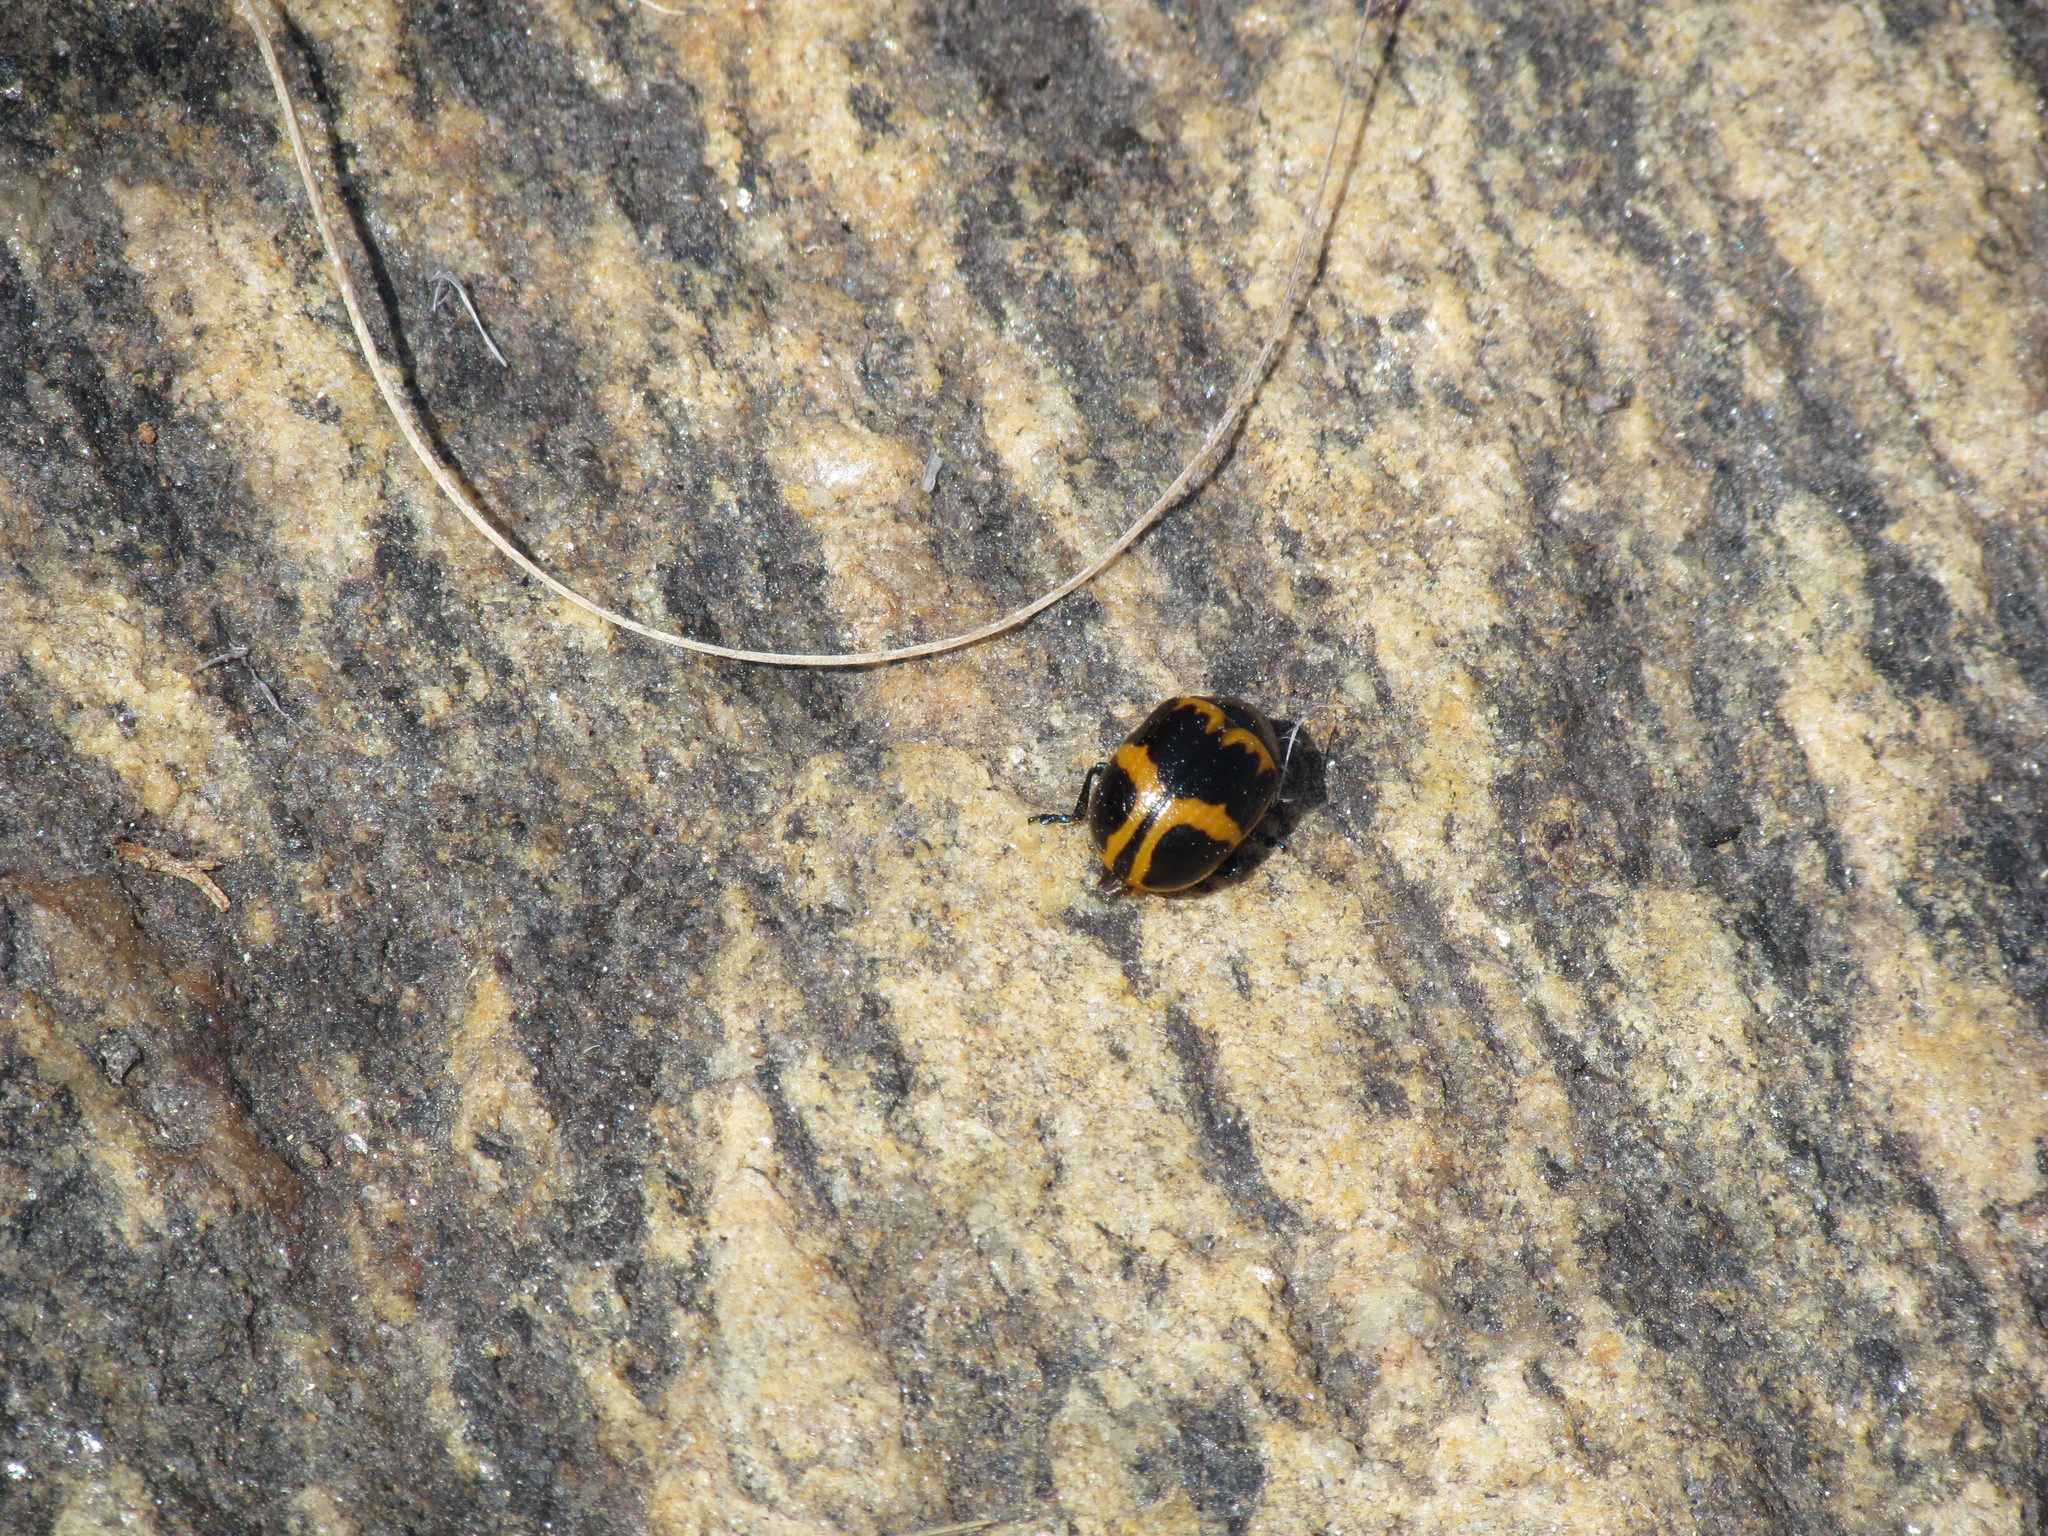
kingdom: Animalia
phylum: Arthropoda
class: Insecta
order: Coleoptera
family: Chrysomelidae
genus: Labidomera
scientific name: Labidomera clivicollis
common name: Swamp milkweed leaf beetle
